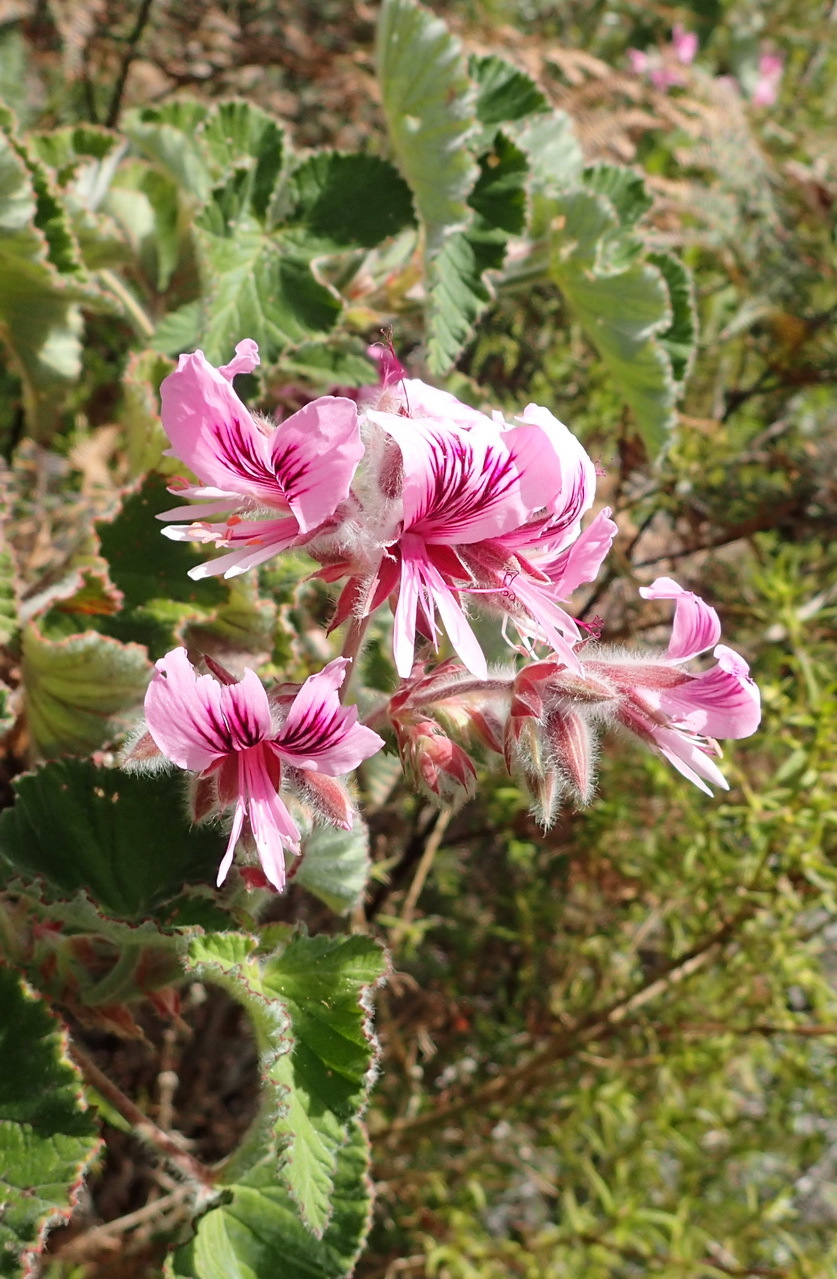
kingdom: Plantae
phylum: Tracheophyta
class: Magnoliopsida
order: Geraniales
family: Geraniaceae
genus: Pelargonium
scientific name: Pelargonium cordifolium
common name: Heart-leaf pelargonium
